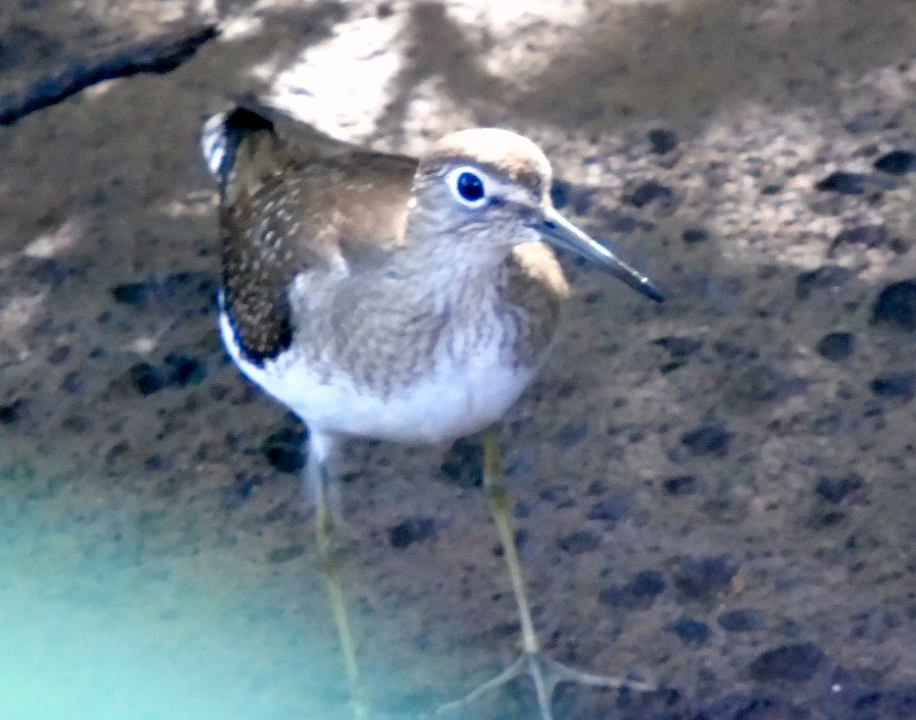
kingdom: Animalia
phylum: Chordata
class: Aves
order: Charadriiformes
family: Scolopacidae
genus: Tringa
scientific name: Tringa solitaria
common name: Solitary sandpiper
